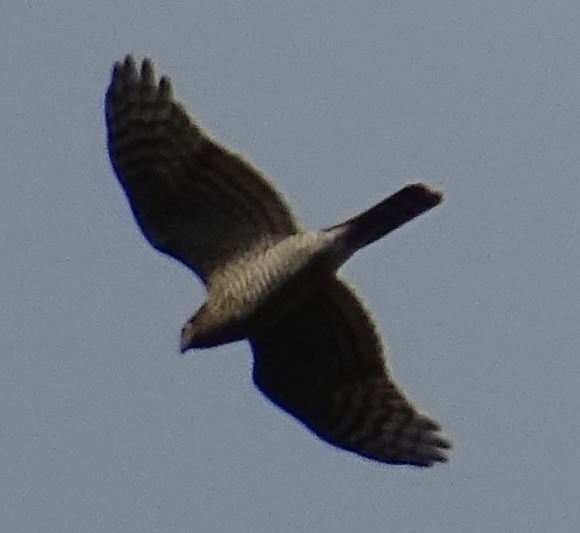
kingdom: Animalia
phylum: Chordata
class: Aves
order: Accipitriformes
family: Accipitridae
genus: Accipiter
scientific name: Accipiter nisus
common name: Eurasian sparrowhawk
